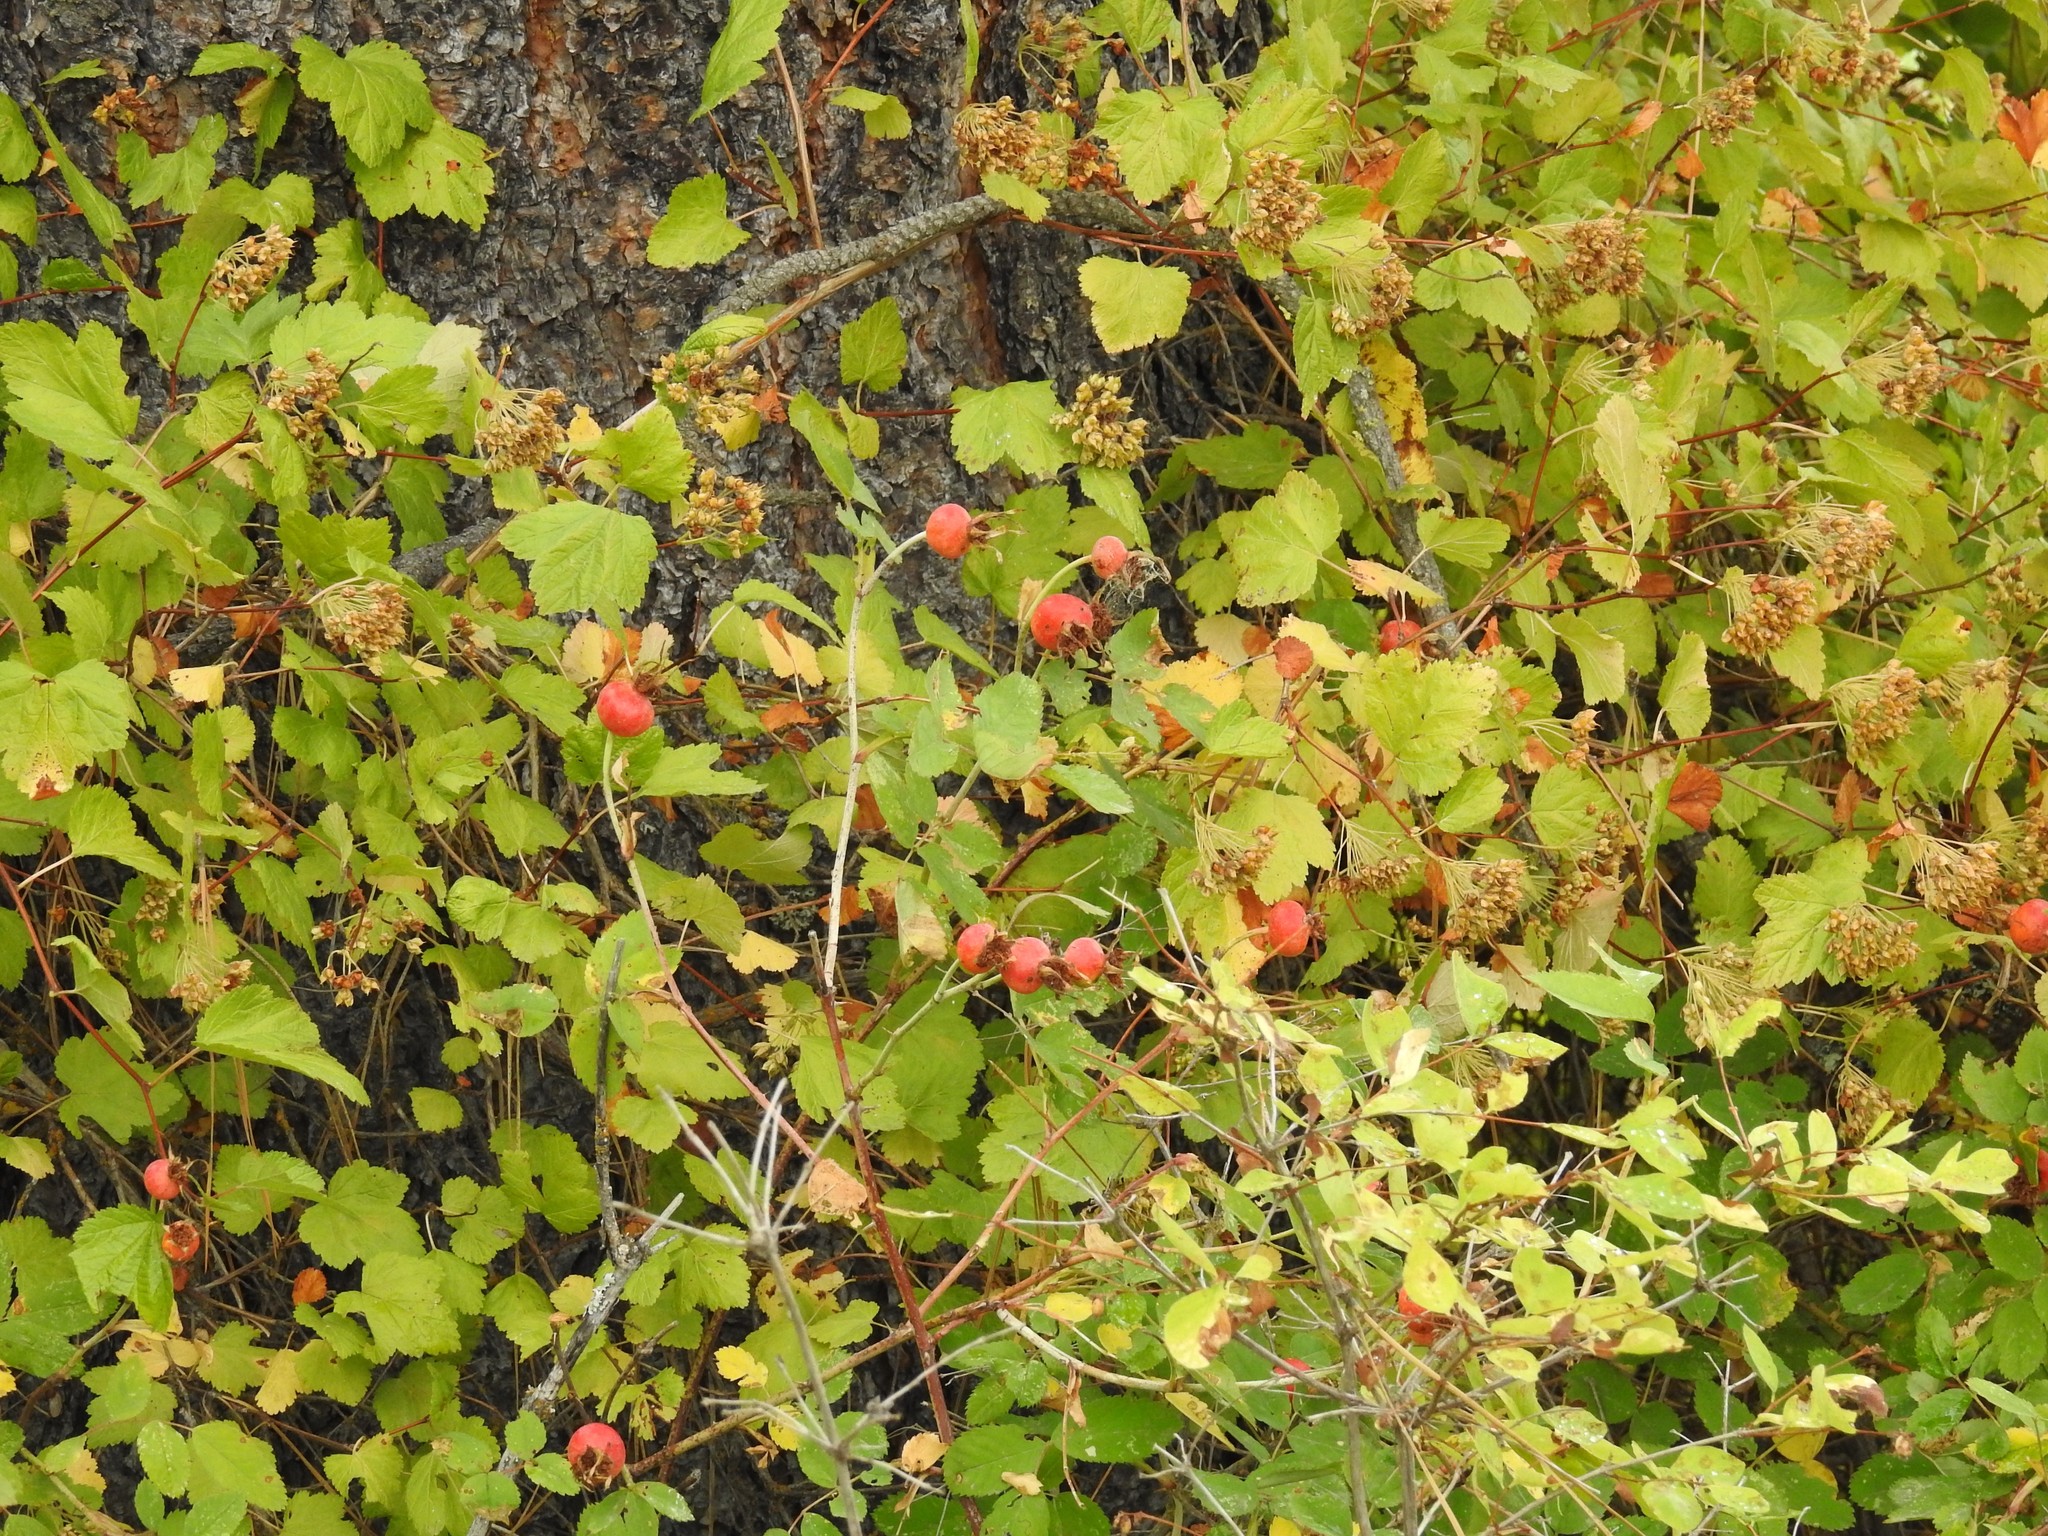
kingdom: Plantae
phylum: Tracheophyta
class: Magnoliopsida
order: Rosales
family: Rosaceae
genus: Rosa
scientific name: Rosa nutkana
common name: Nootka rose
